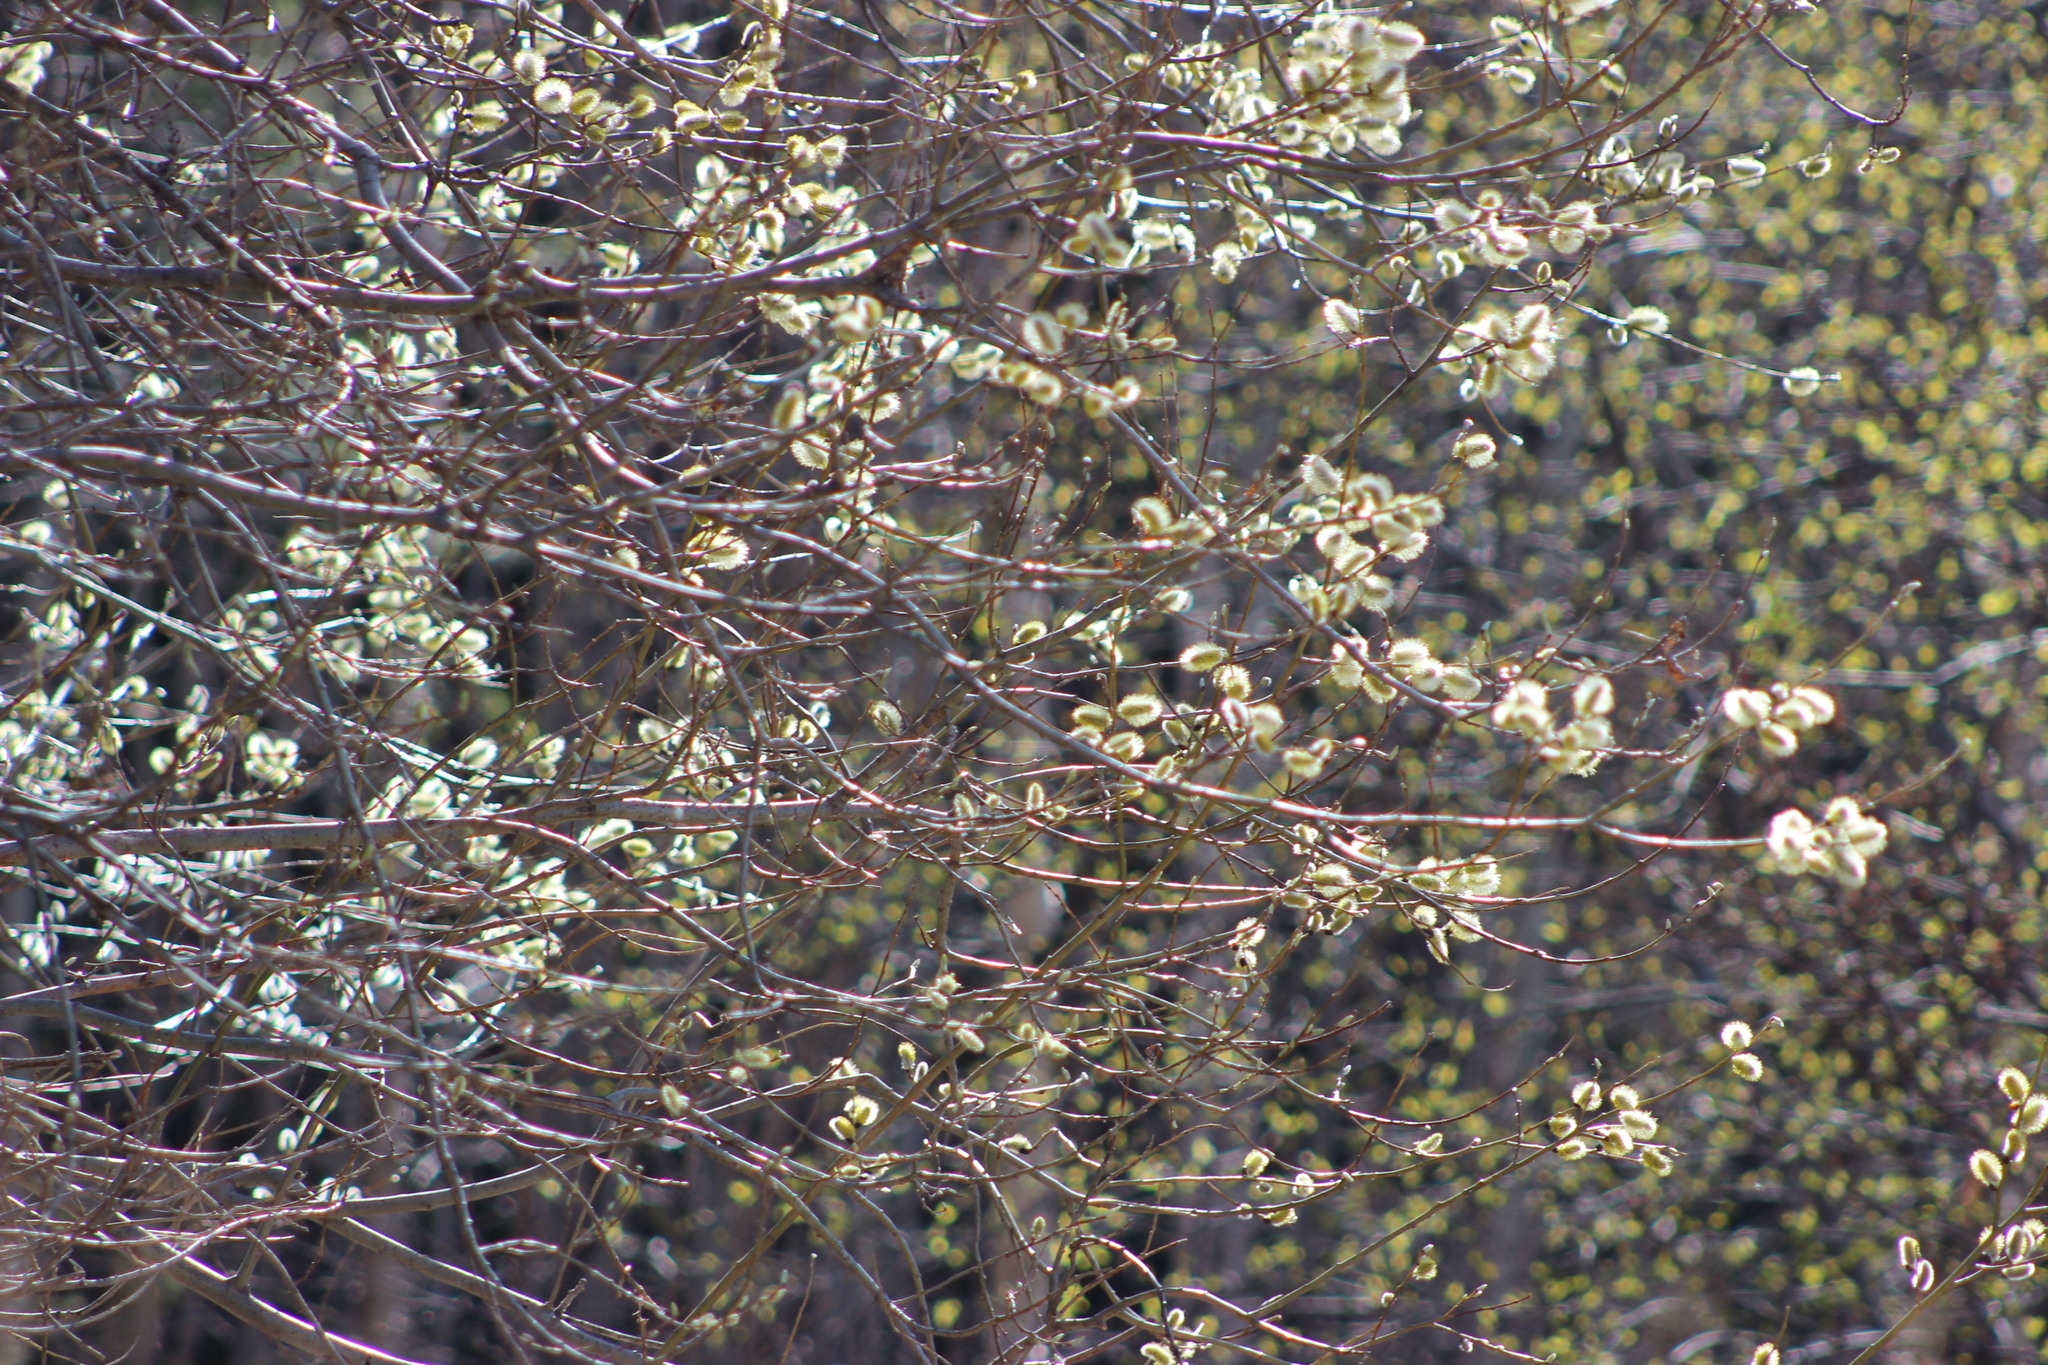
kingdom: Plantae
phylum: Tracheophyta
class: Magnoliopsida
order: Malpighiales
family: Salicaceae
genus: Salix
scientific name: Salix caprea
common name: Goat willow
